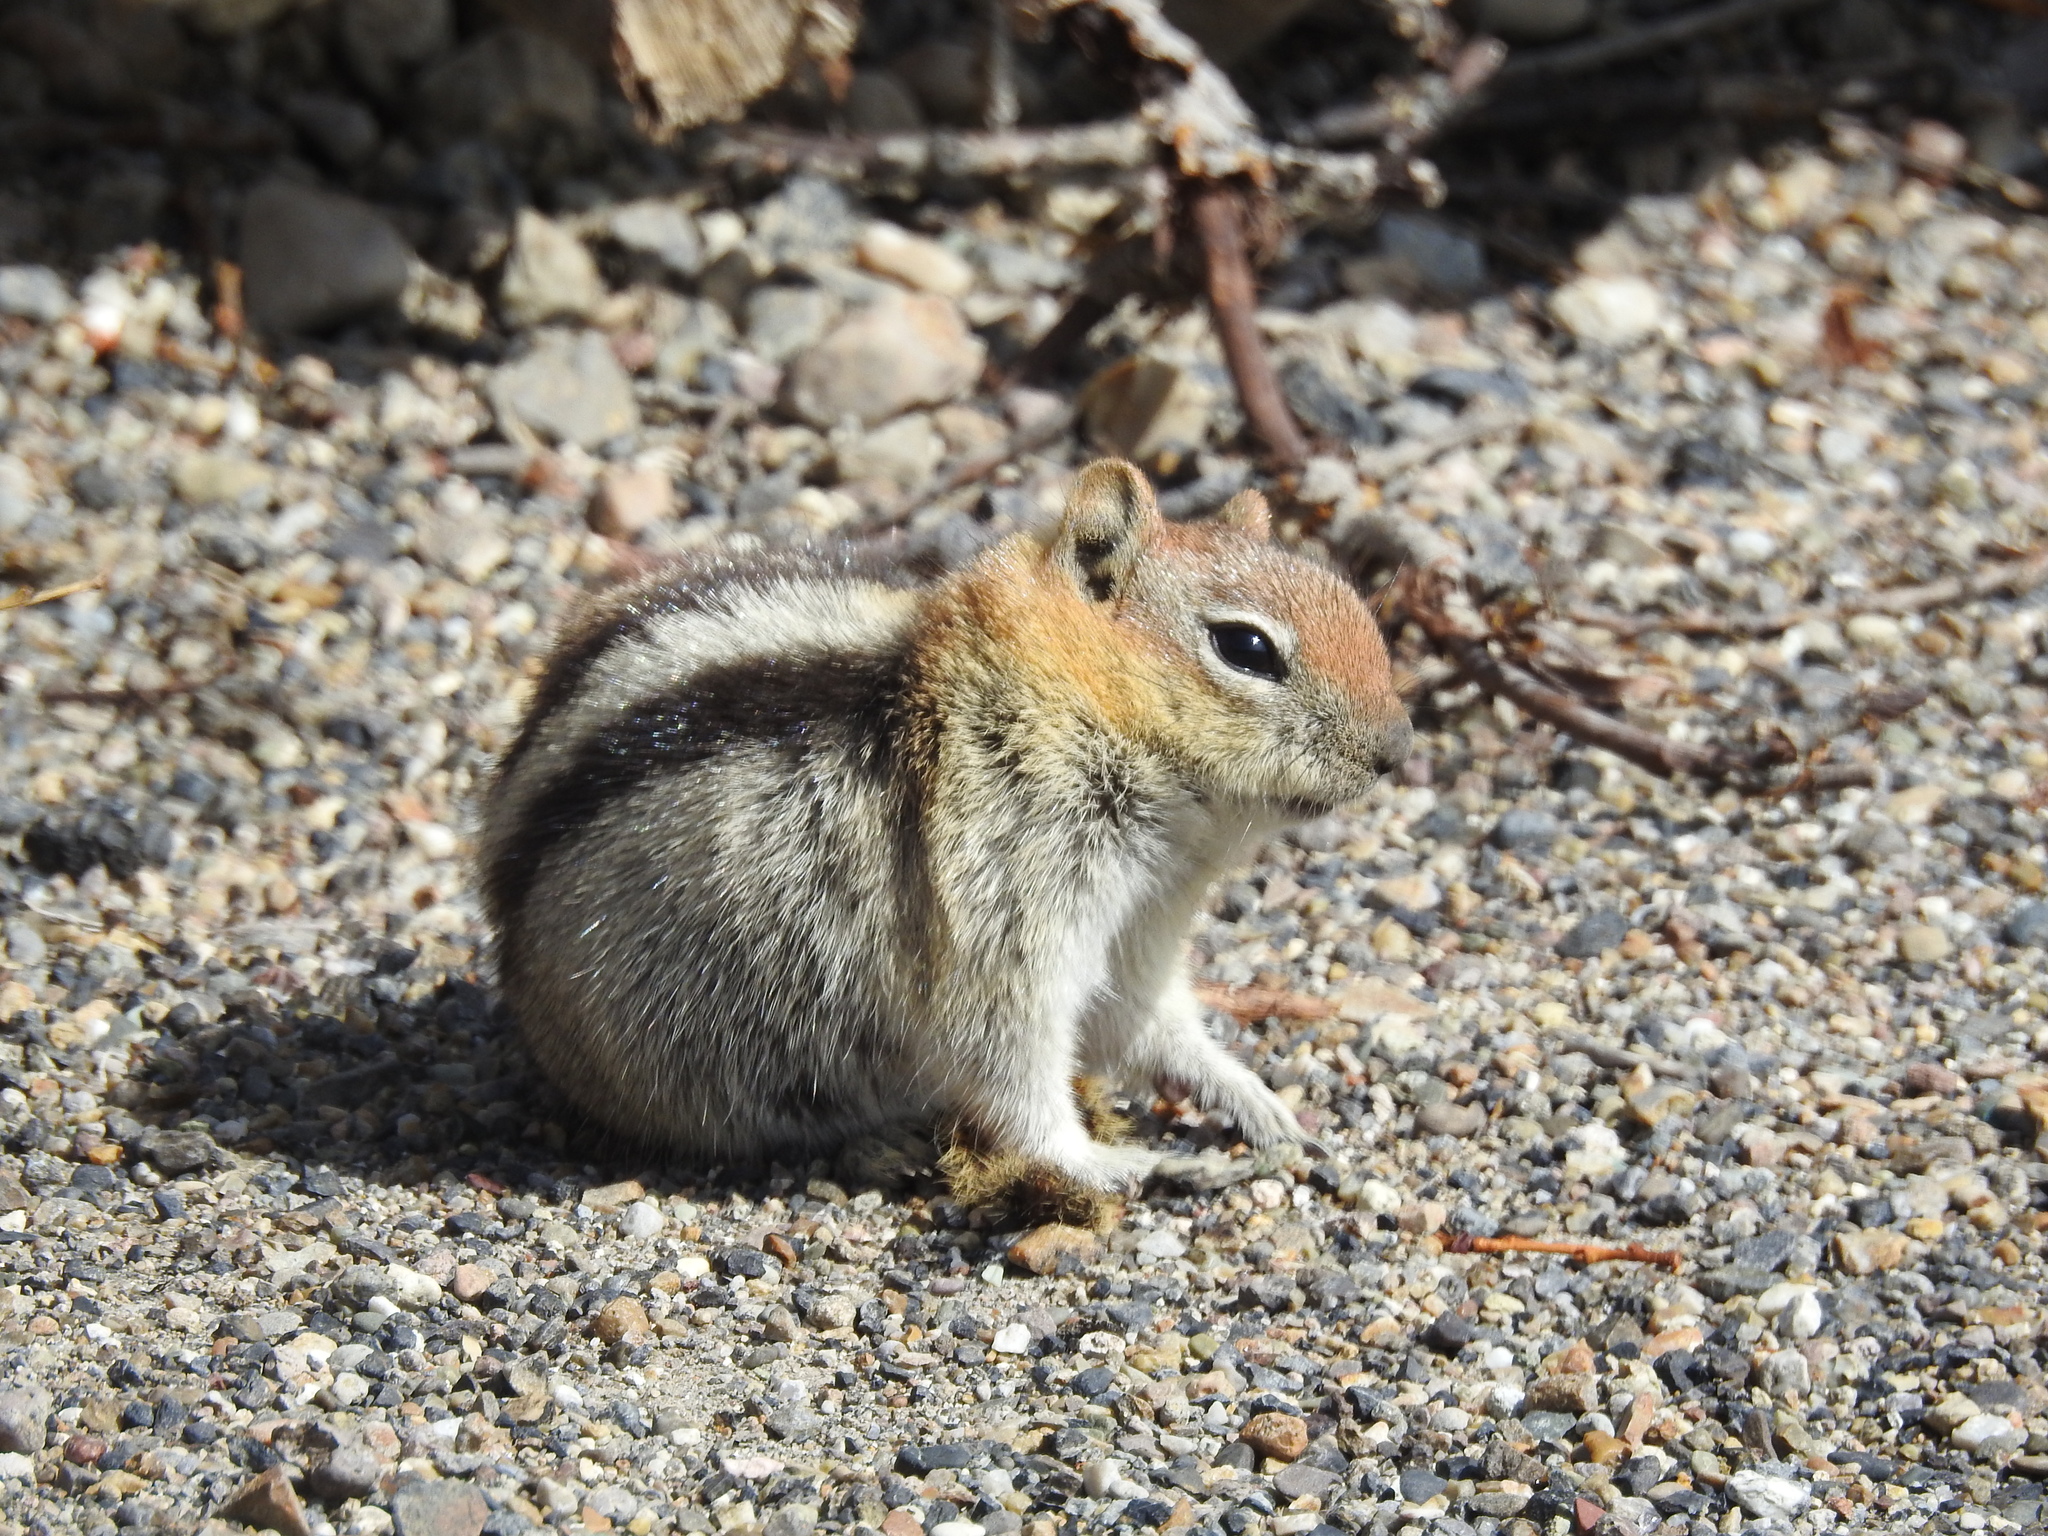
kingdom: Animalia
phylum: Chordata
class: Mammalia
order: Rodentia
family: Sciuridae
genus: Callospermophilus
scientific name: Callospermophilus lateralis
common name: Golden-mantled ground squirrel
